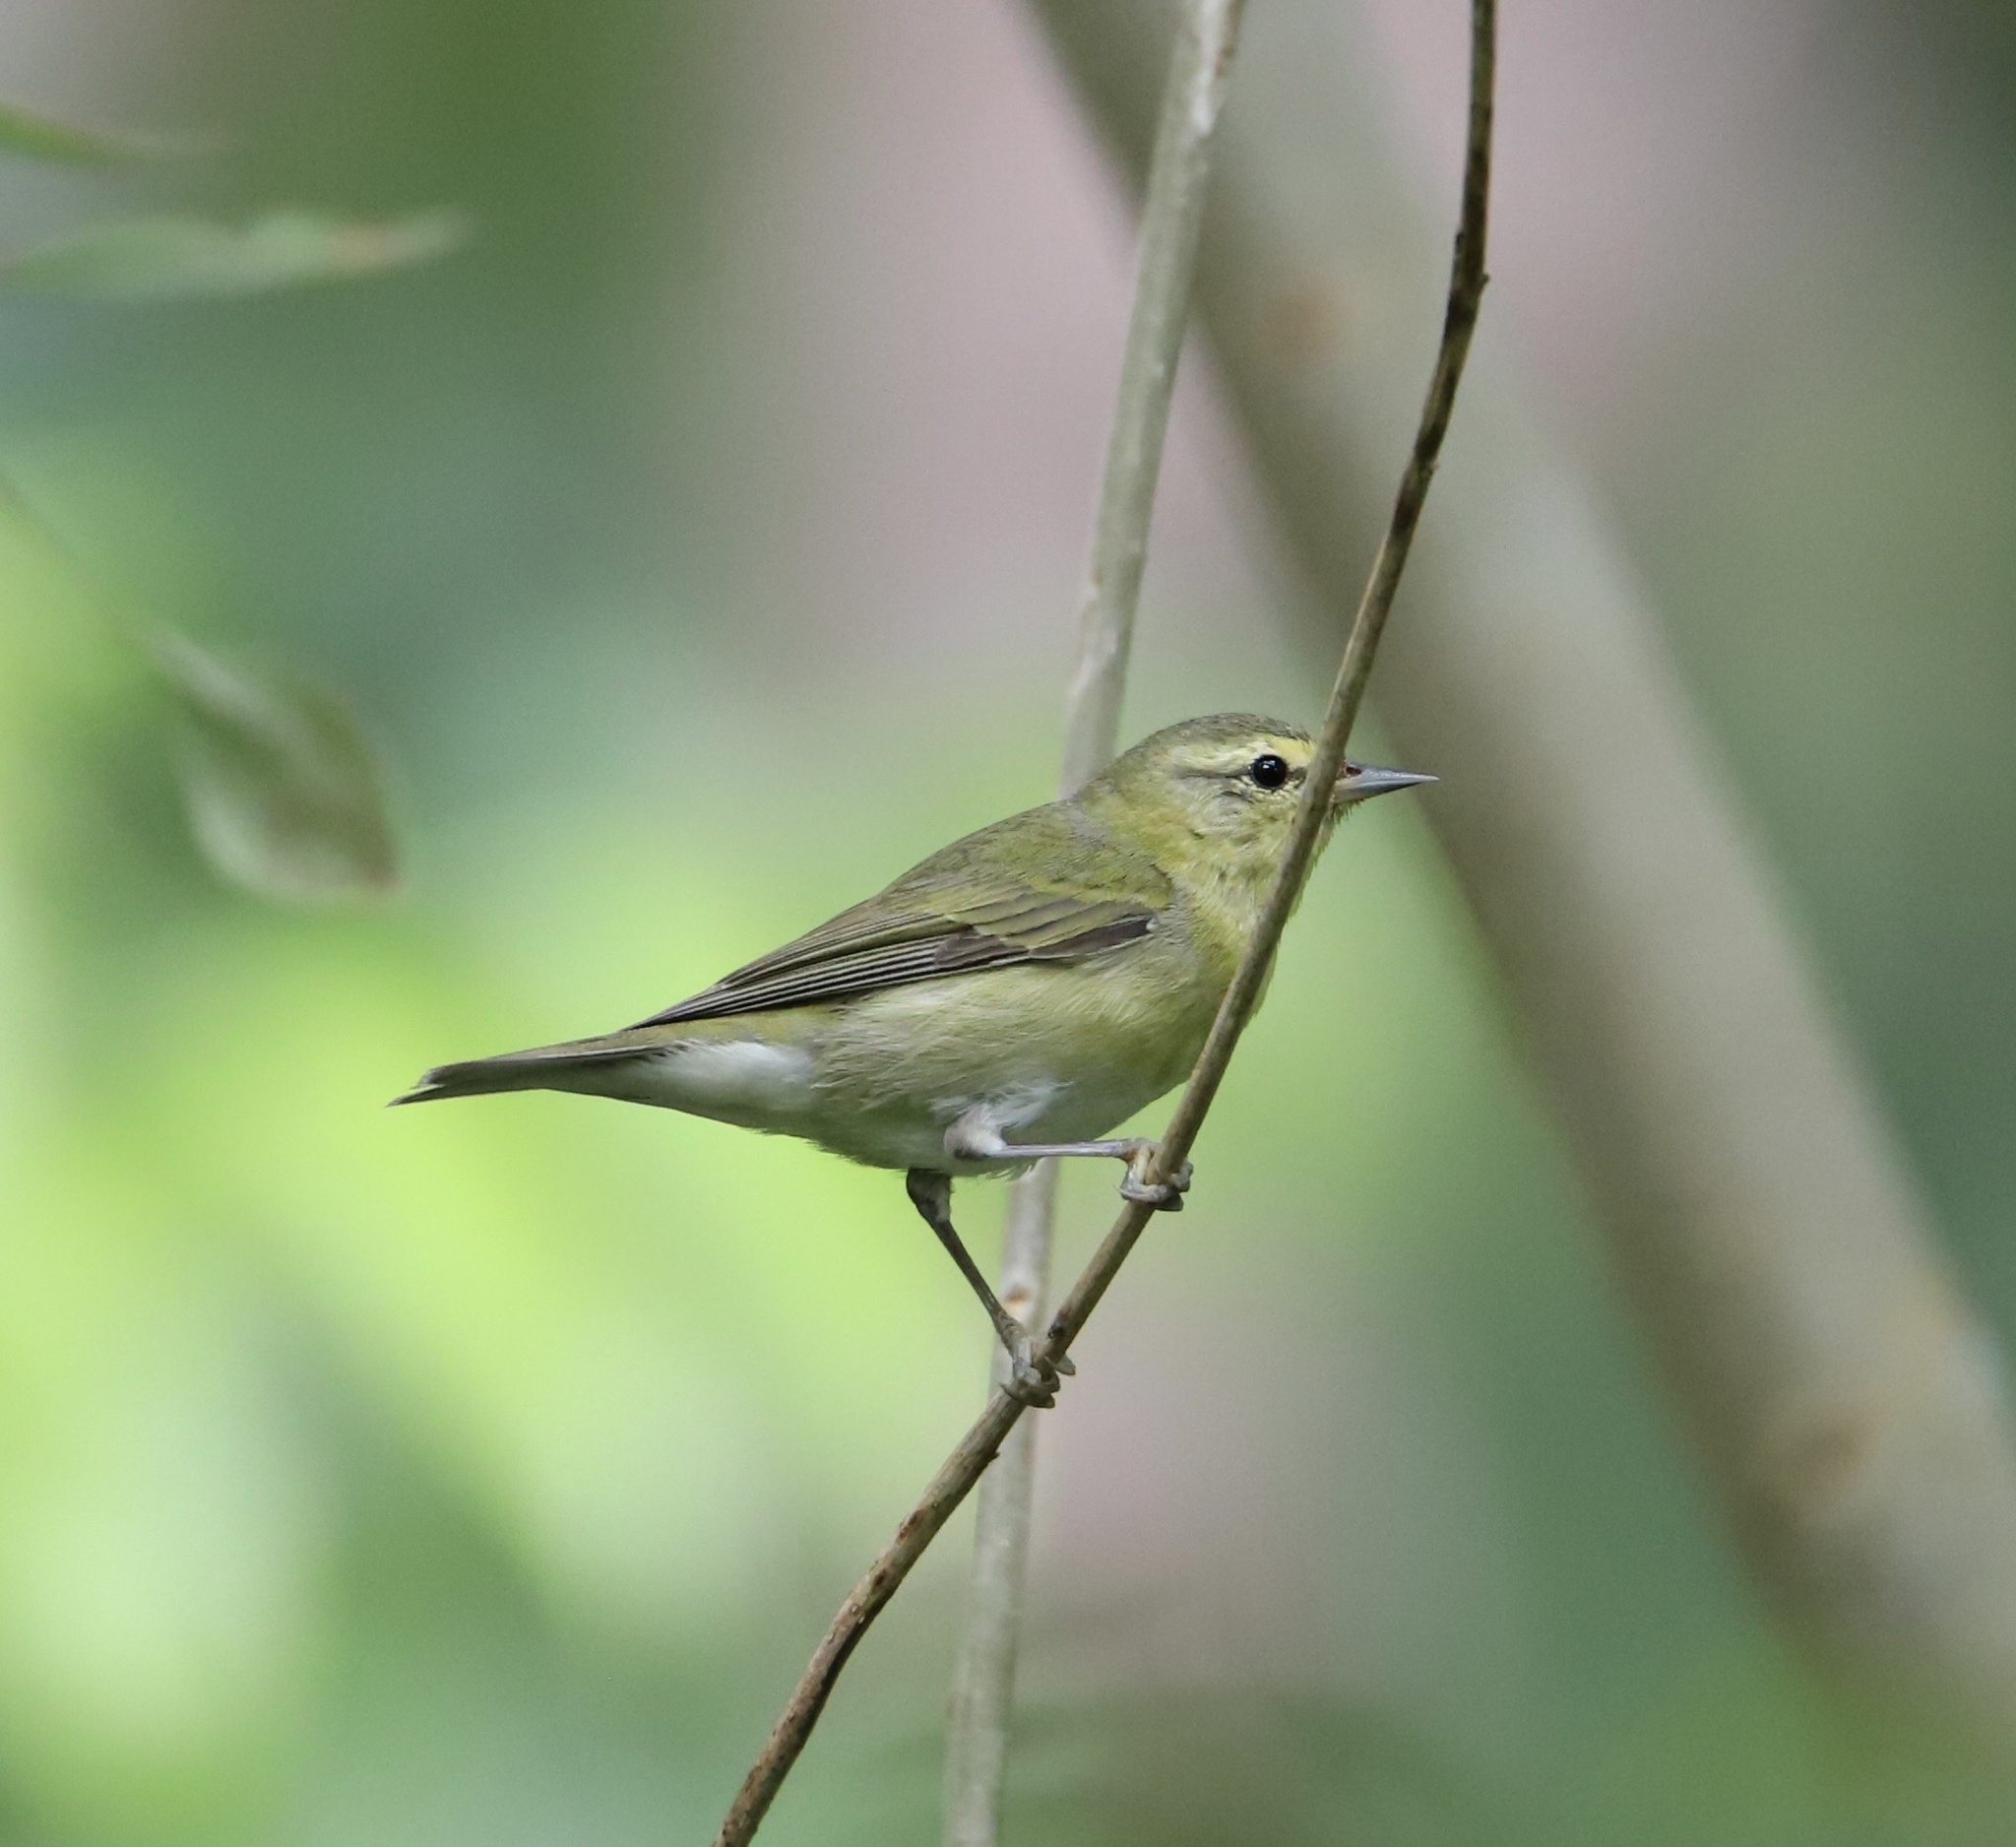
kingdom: Animalia
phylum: Chordata
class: Aves
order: Passeriformes
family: Parulidae
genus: Leiothlypis
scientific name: Leiothlypis peregrina
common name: Tennessee warbler
